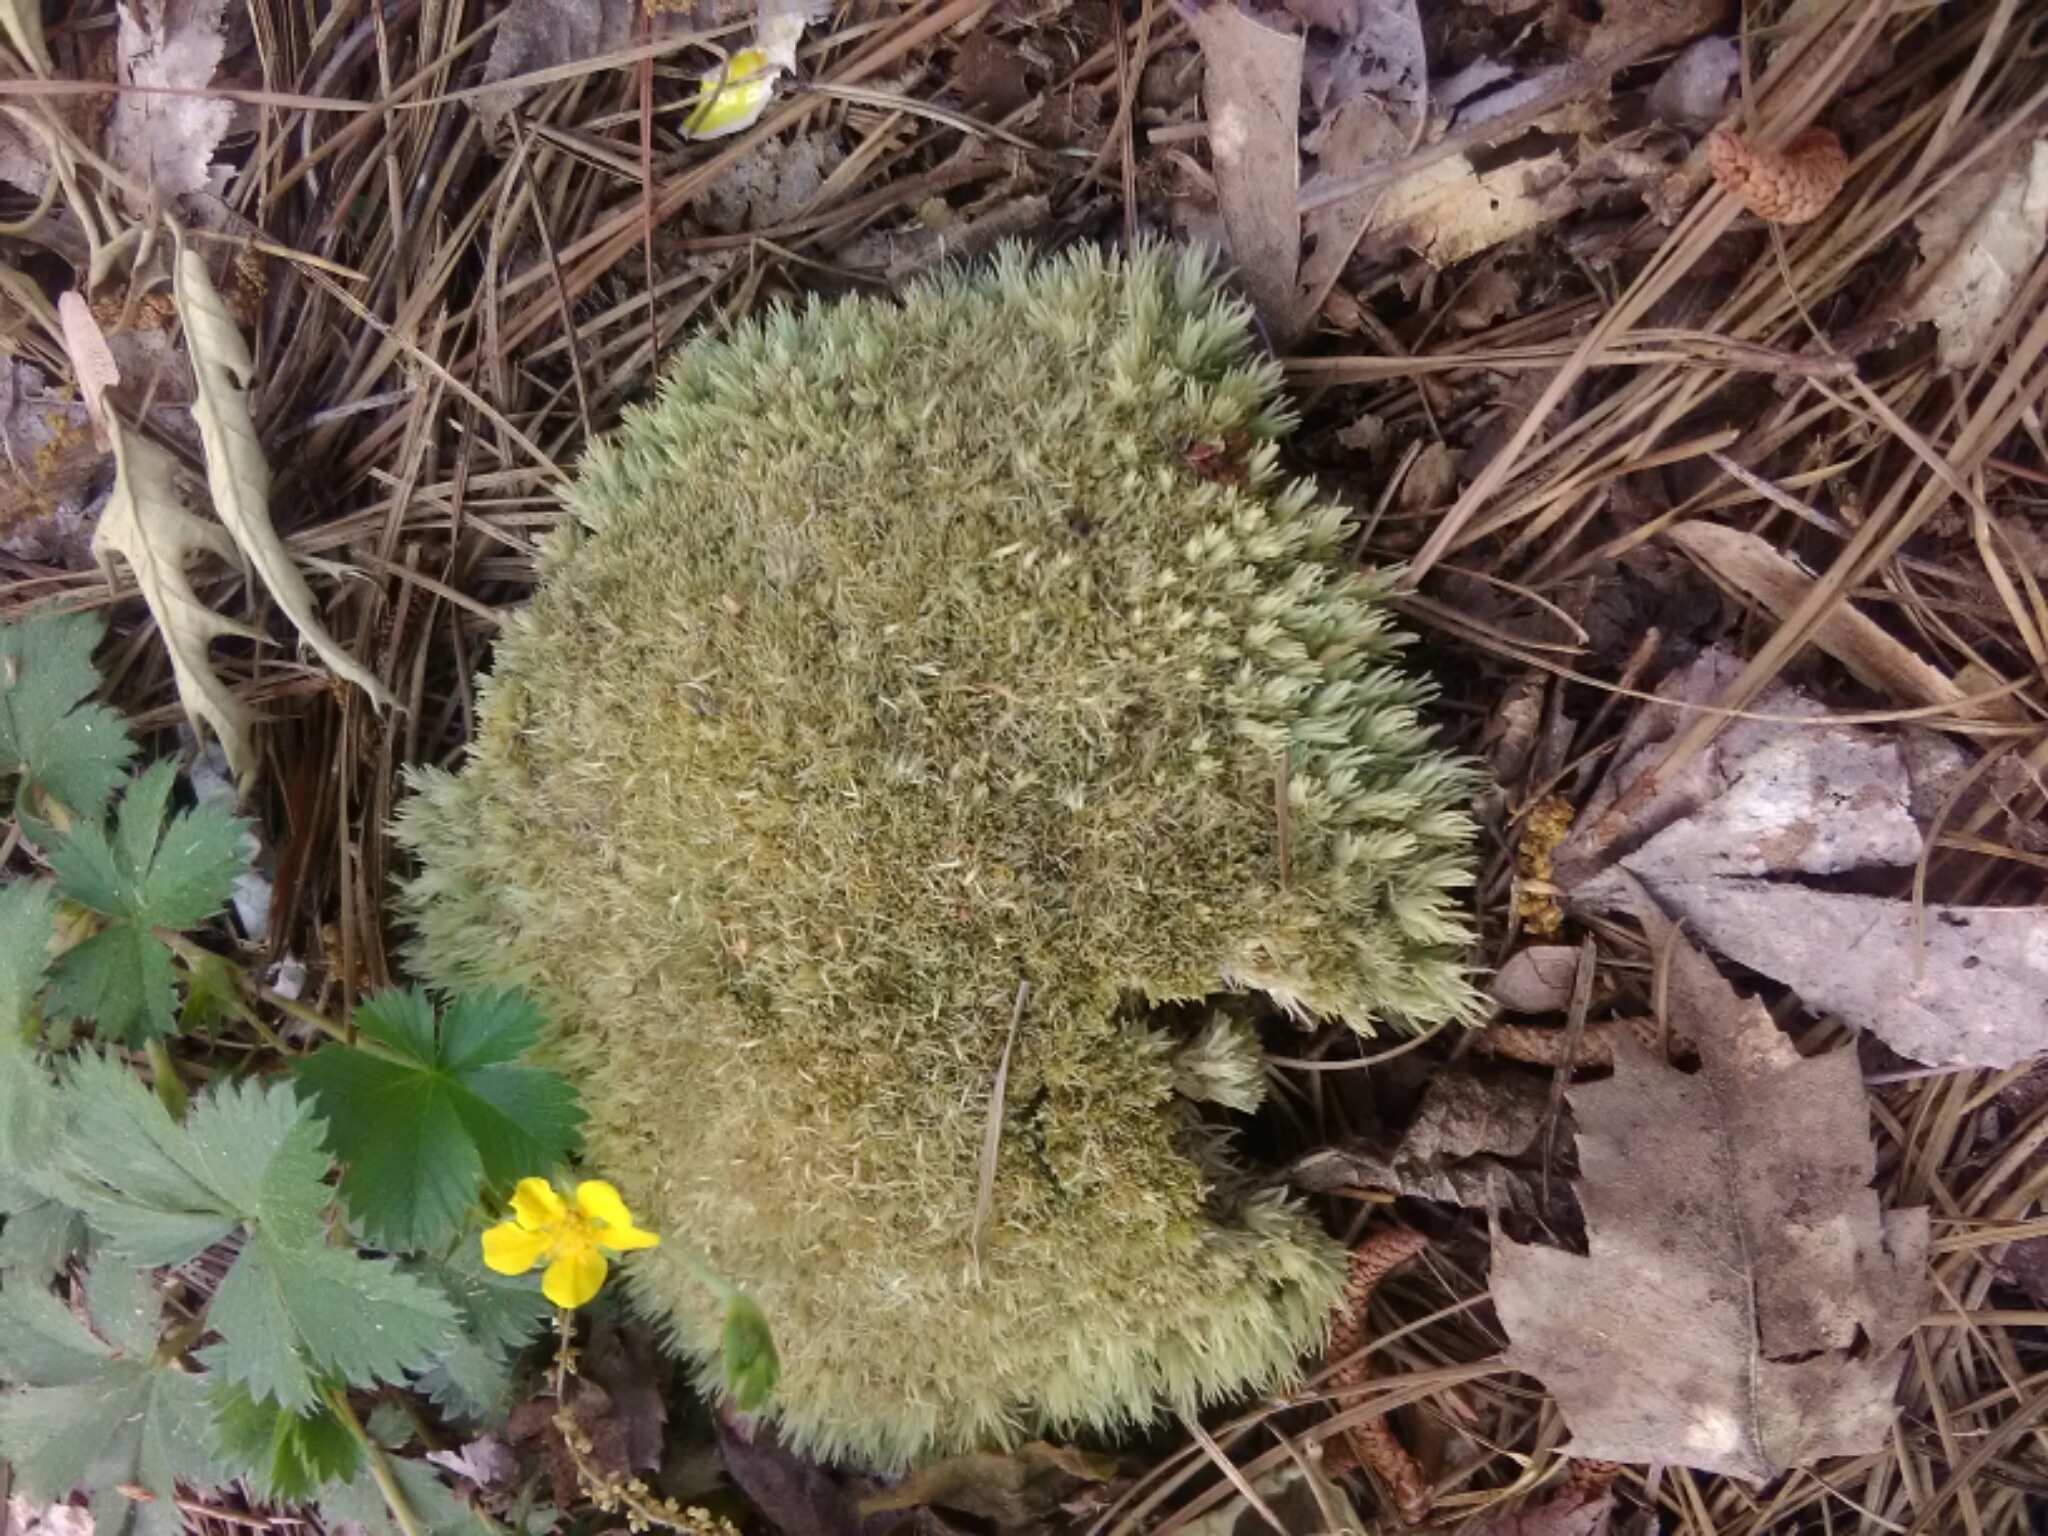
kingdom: Plantae
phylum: Bryophyta
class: Bryopsida
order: Dicranales
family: Leucobryaceae
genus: Leucobryum
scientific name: Leucobryum glaucum
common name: Large white-moss
